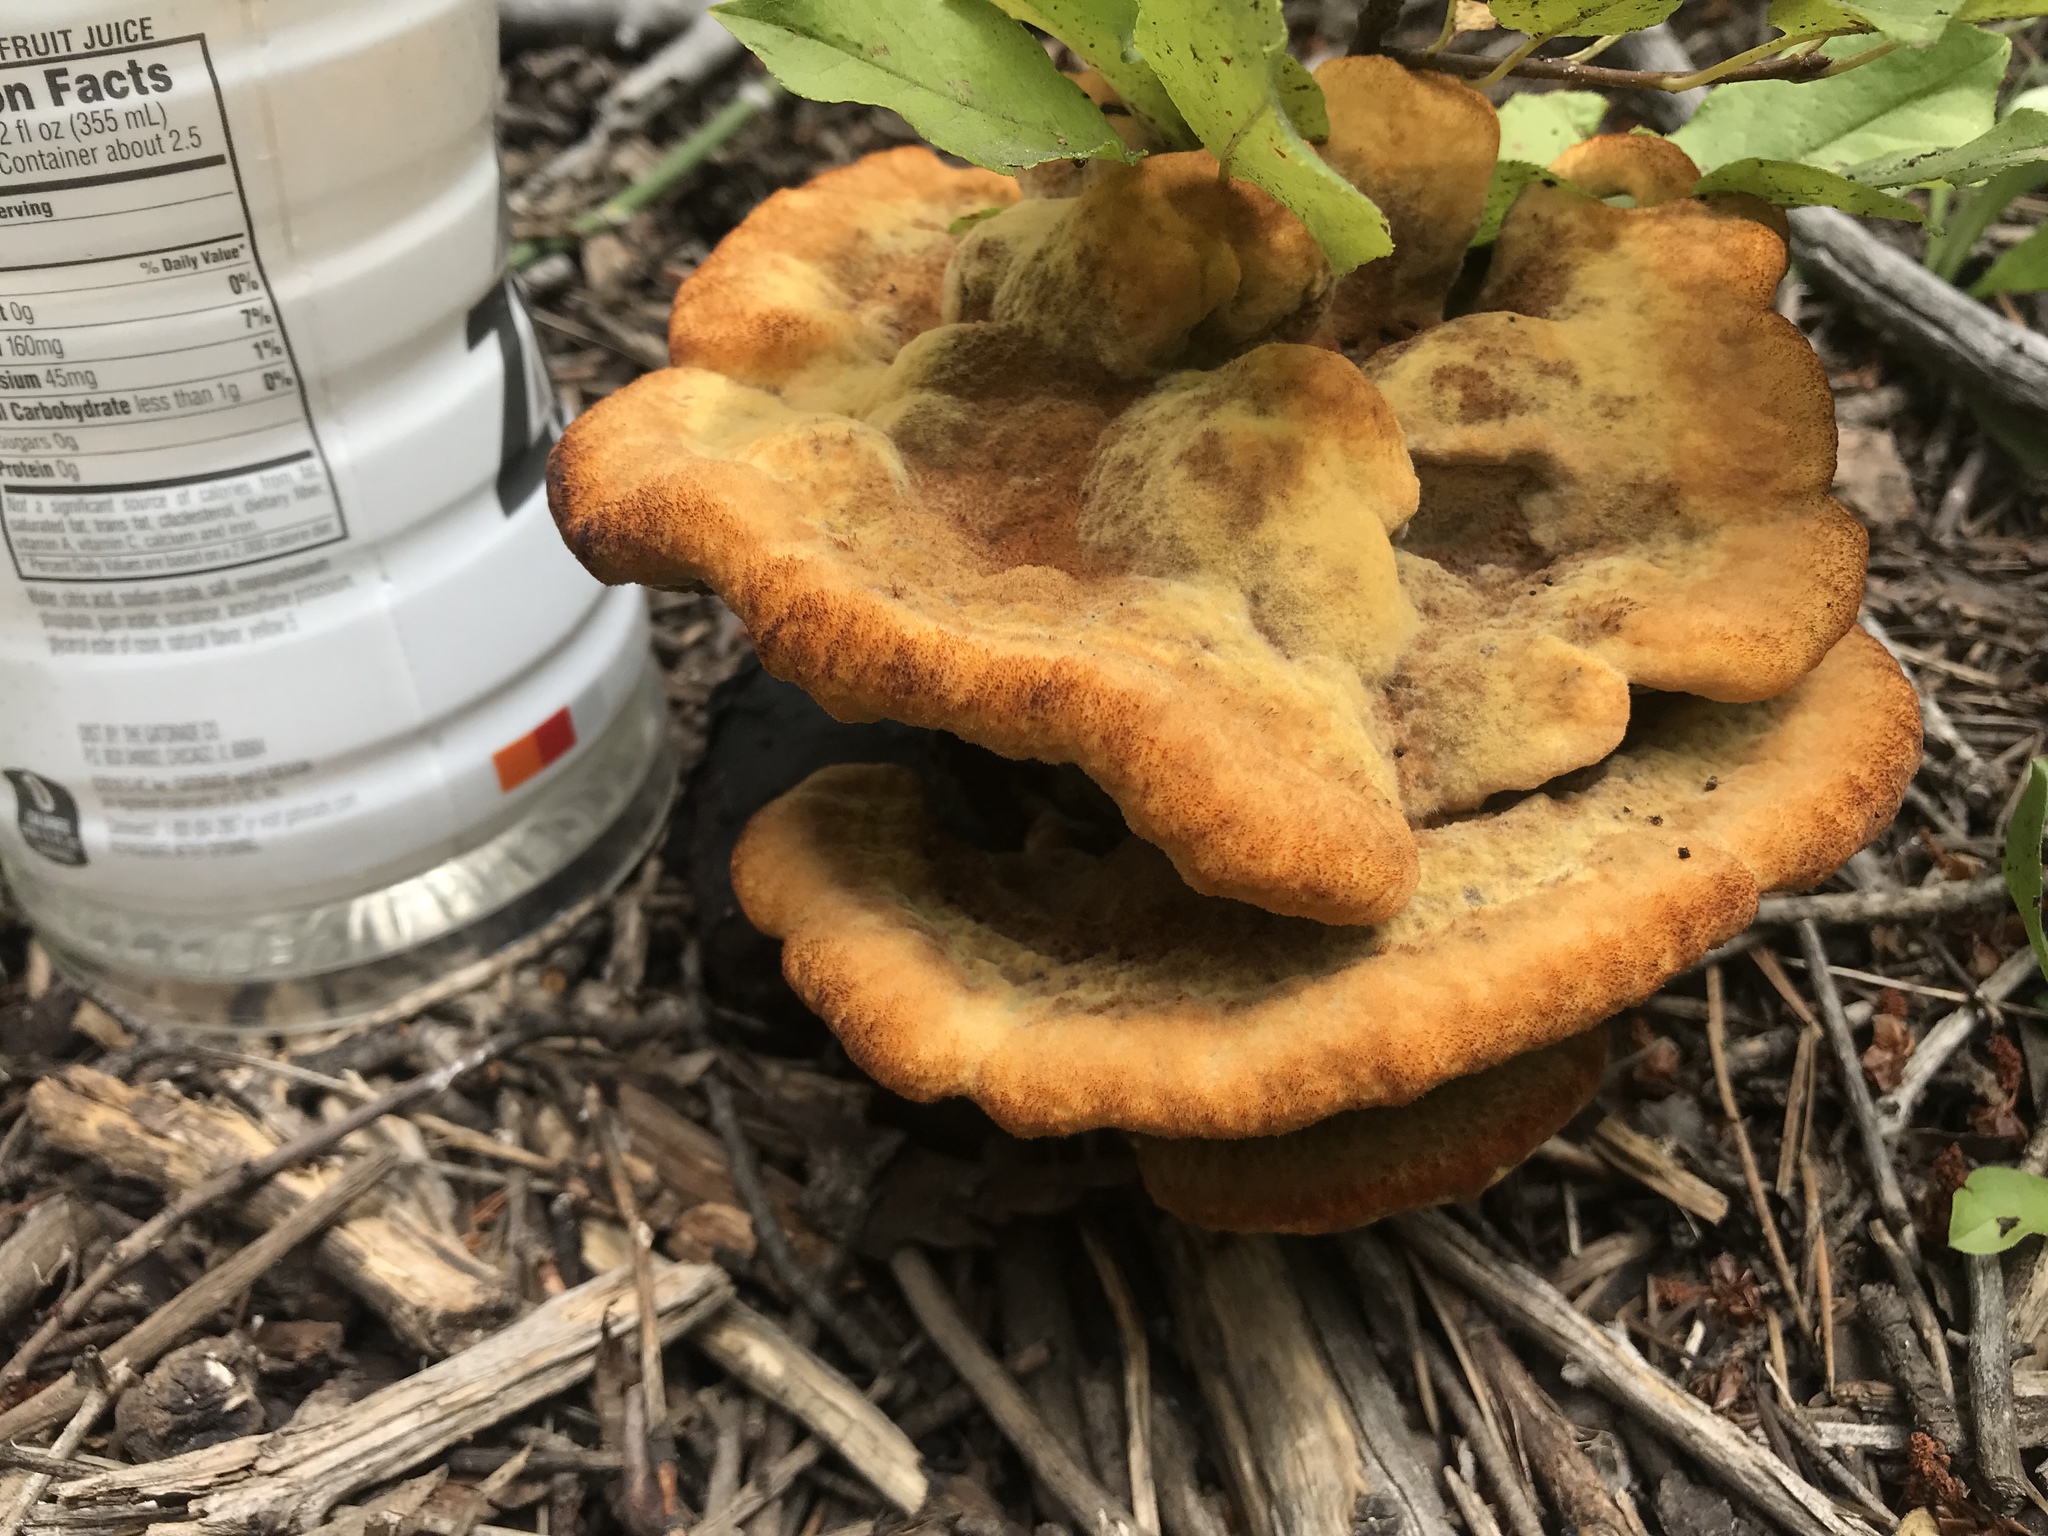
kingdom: Fungi
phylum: Basidiomycota
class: Agaricomycetes
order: Polyporales
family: Laetiporaceae
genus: Phaeolus
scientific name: Phaeolus schweinitzii
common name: Dyer's mazegill
